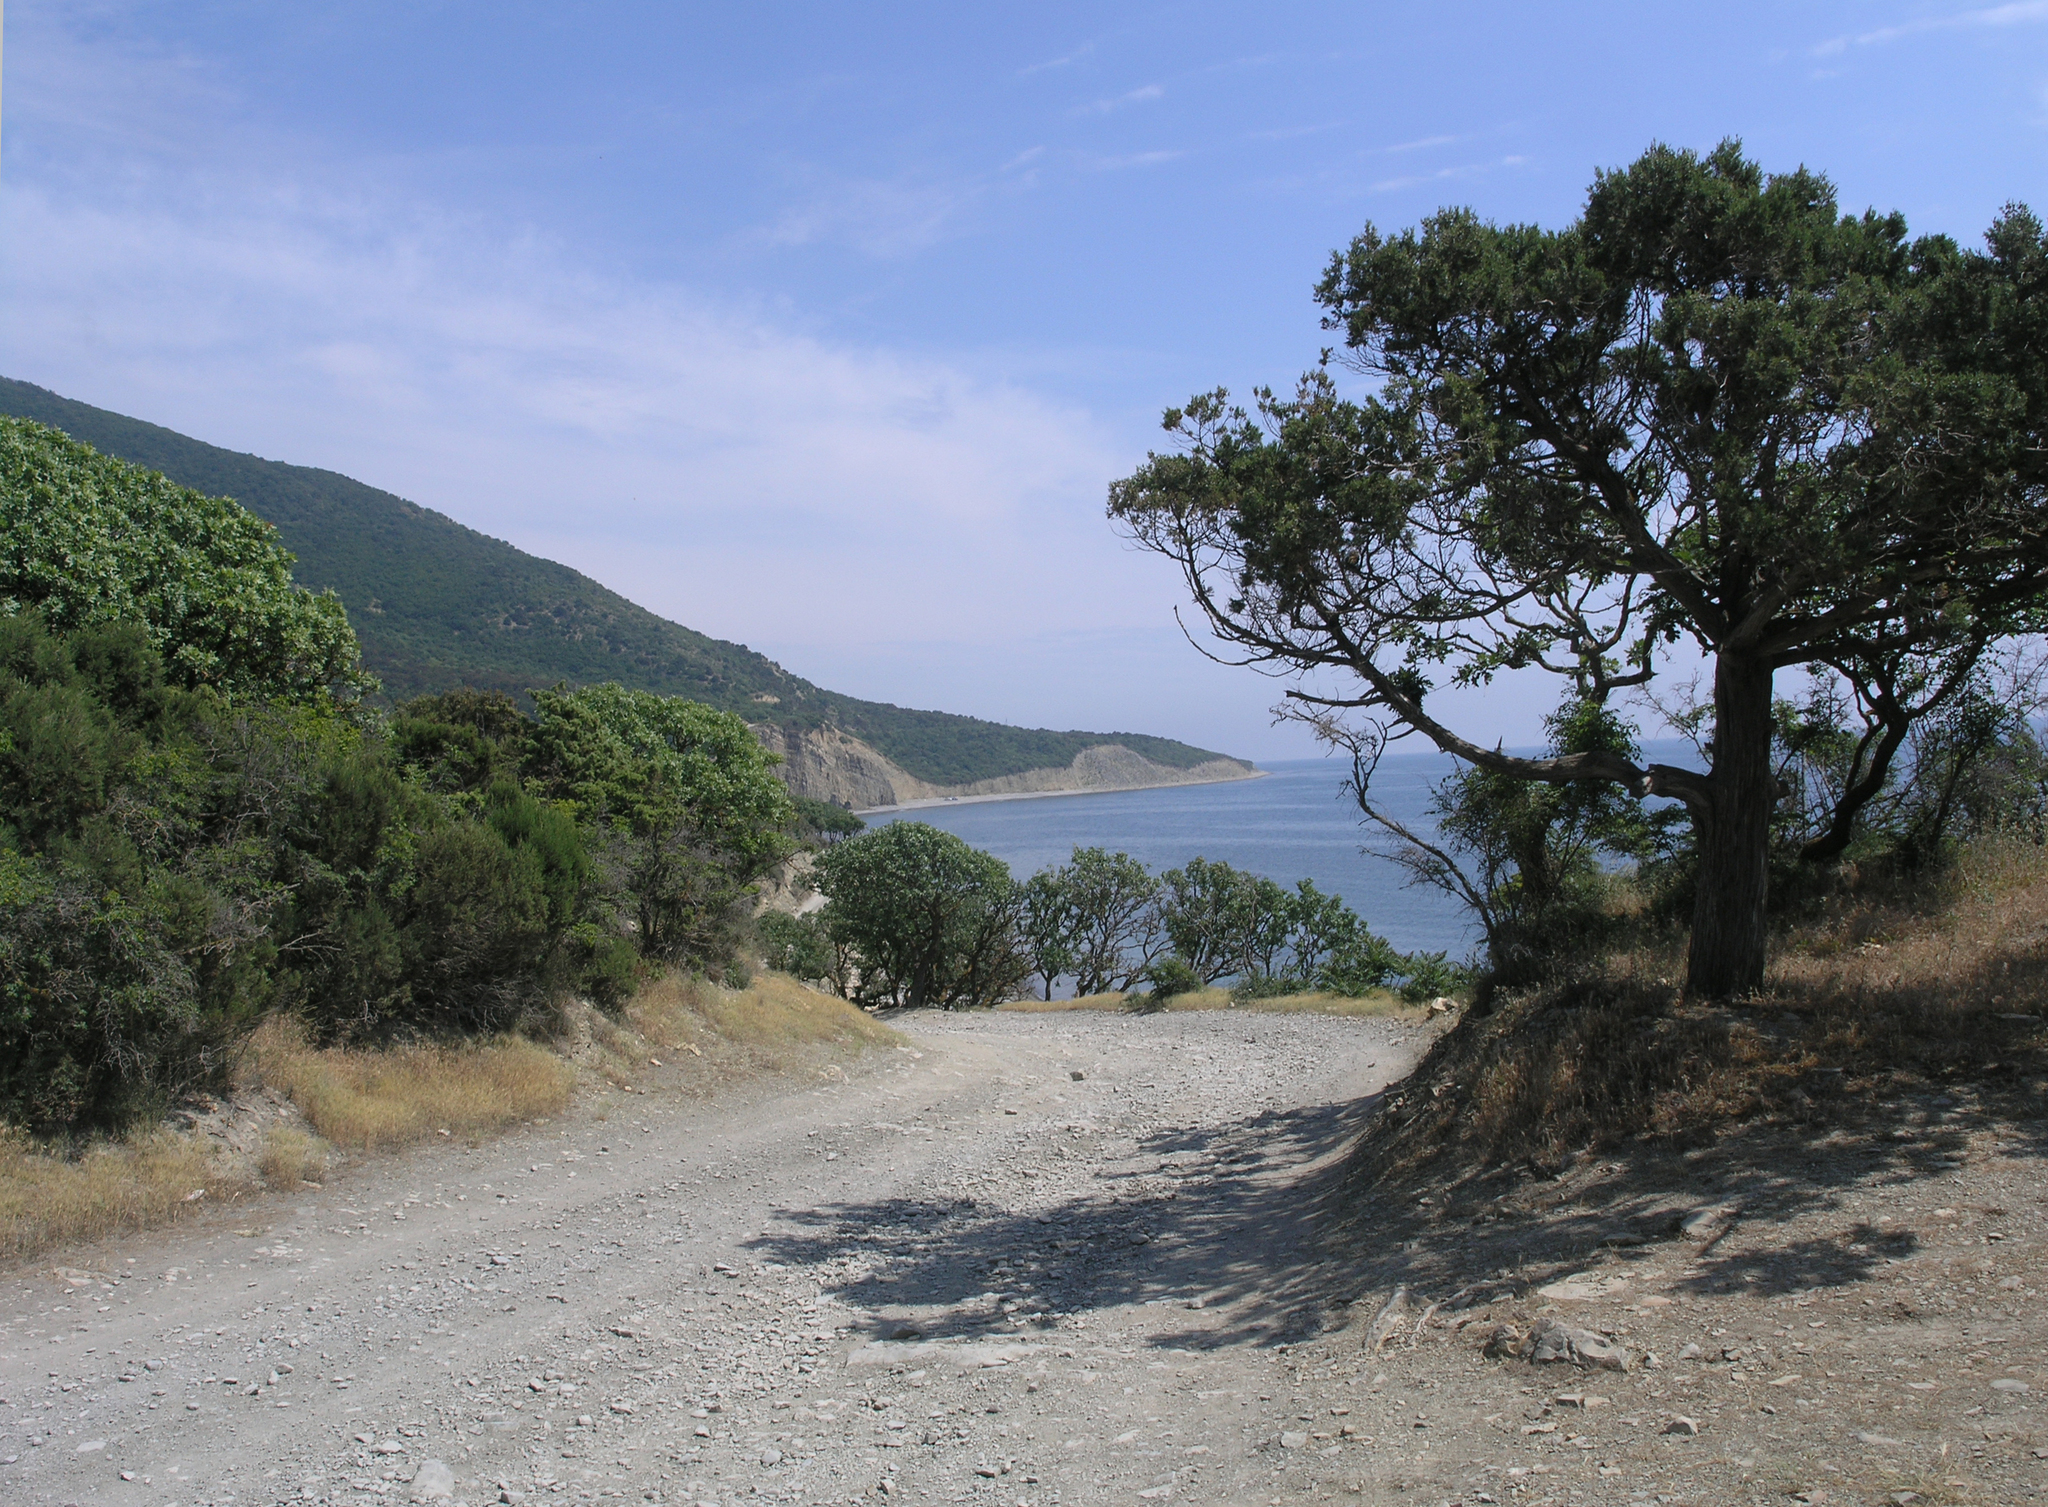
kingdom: Plantae
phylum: Tracheophyta
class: Pinopsida
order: Pinales
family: Cupressaceae
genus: Juniperus
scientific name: Juniperus excelsa
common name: Crimean juniper
